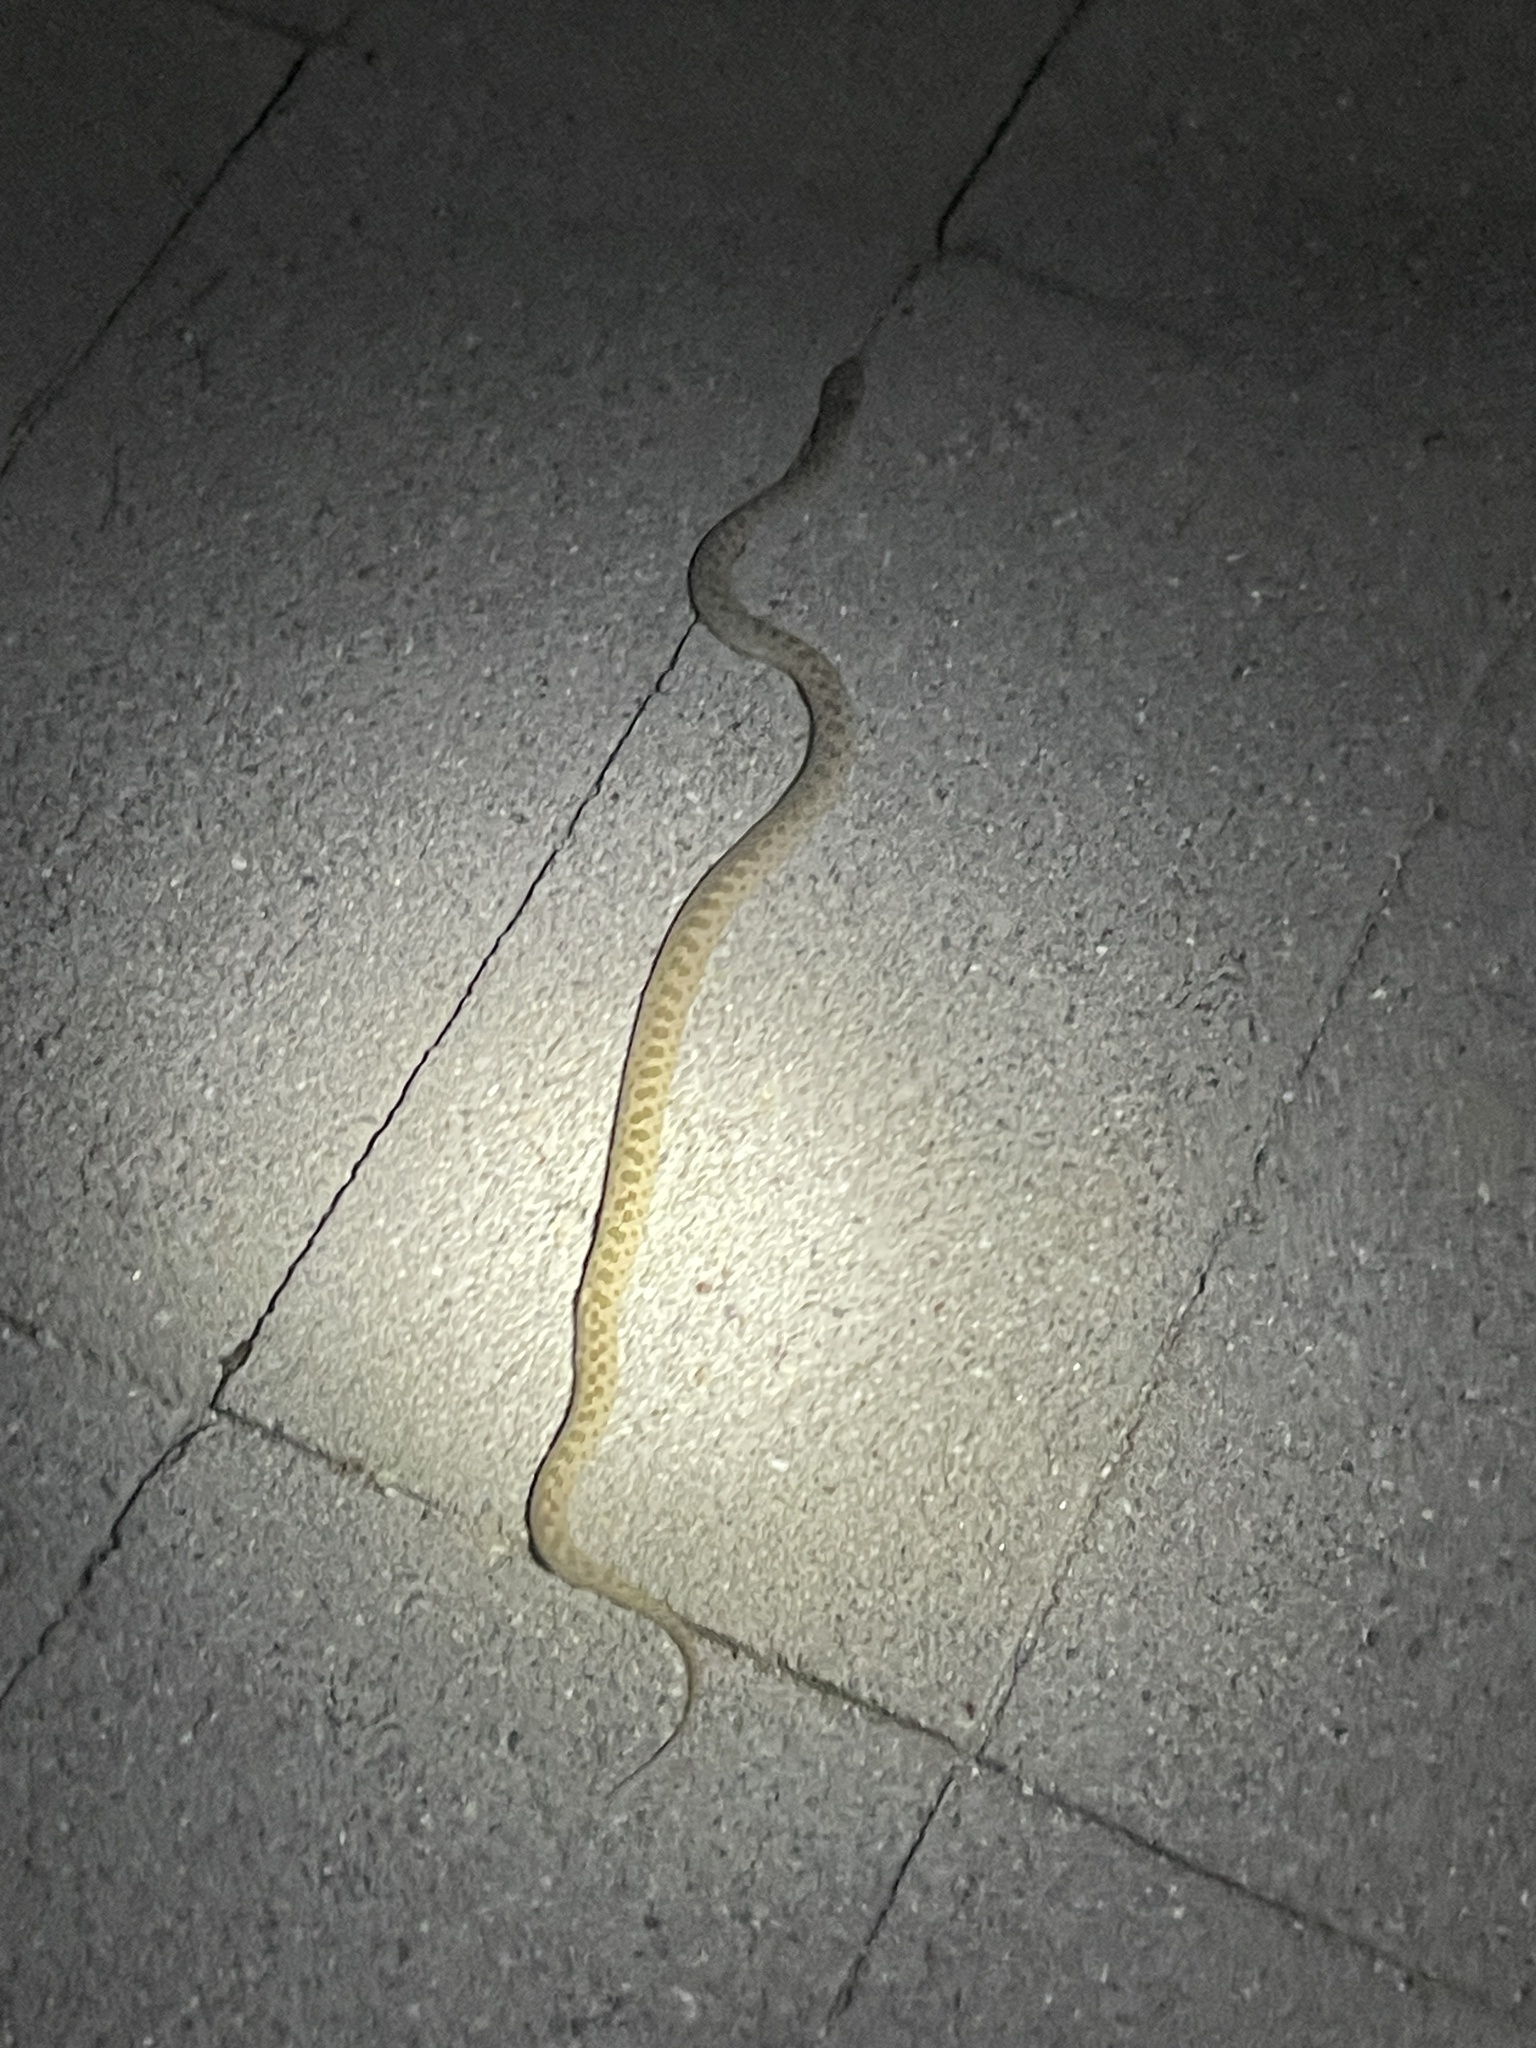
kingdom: Animalia
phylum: Chordata
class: Squamata
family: Colubridae
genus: Hypsiglena
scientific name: Hypsiglena chlorophaea
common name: Desert nightsnake
